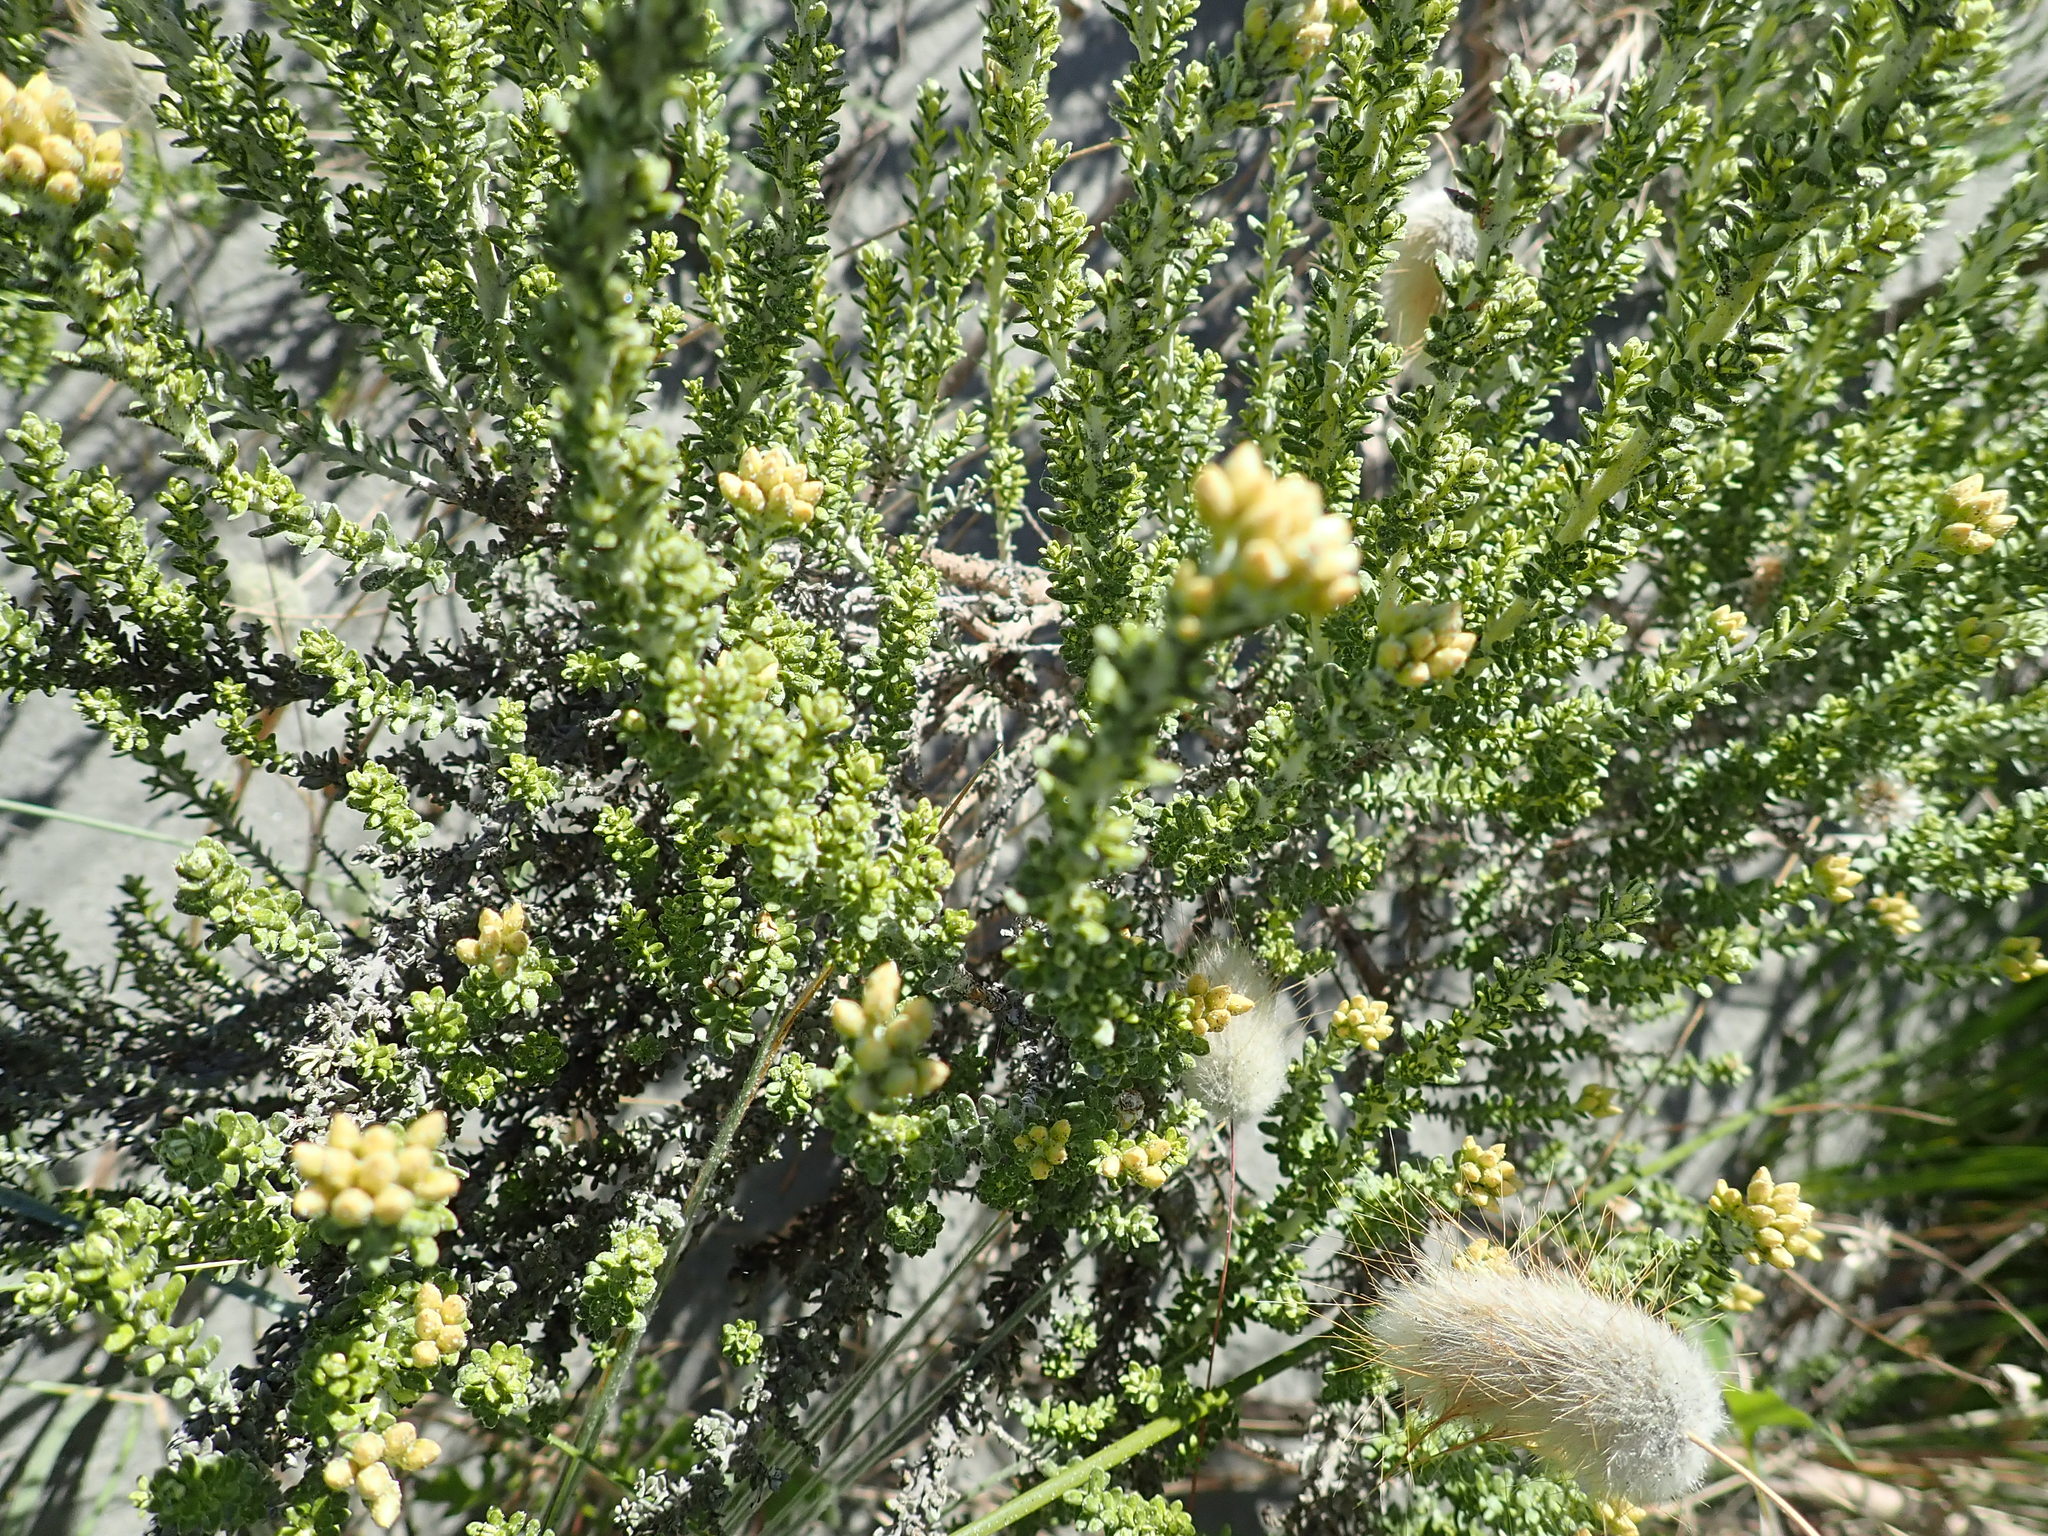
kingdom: Plantae
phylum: Tracheophyta
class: Magnoliopsida
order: Asterales
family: Asteraceae
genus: Ozothamnus
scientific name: Ozothamnus leptophyllus
